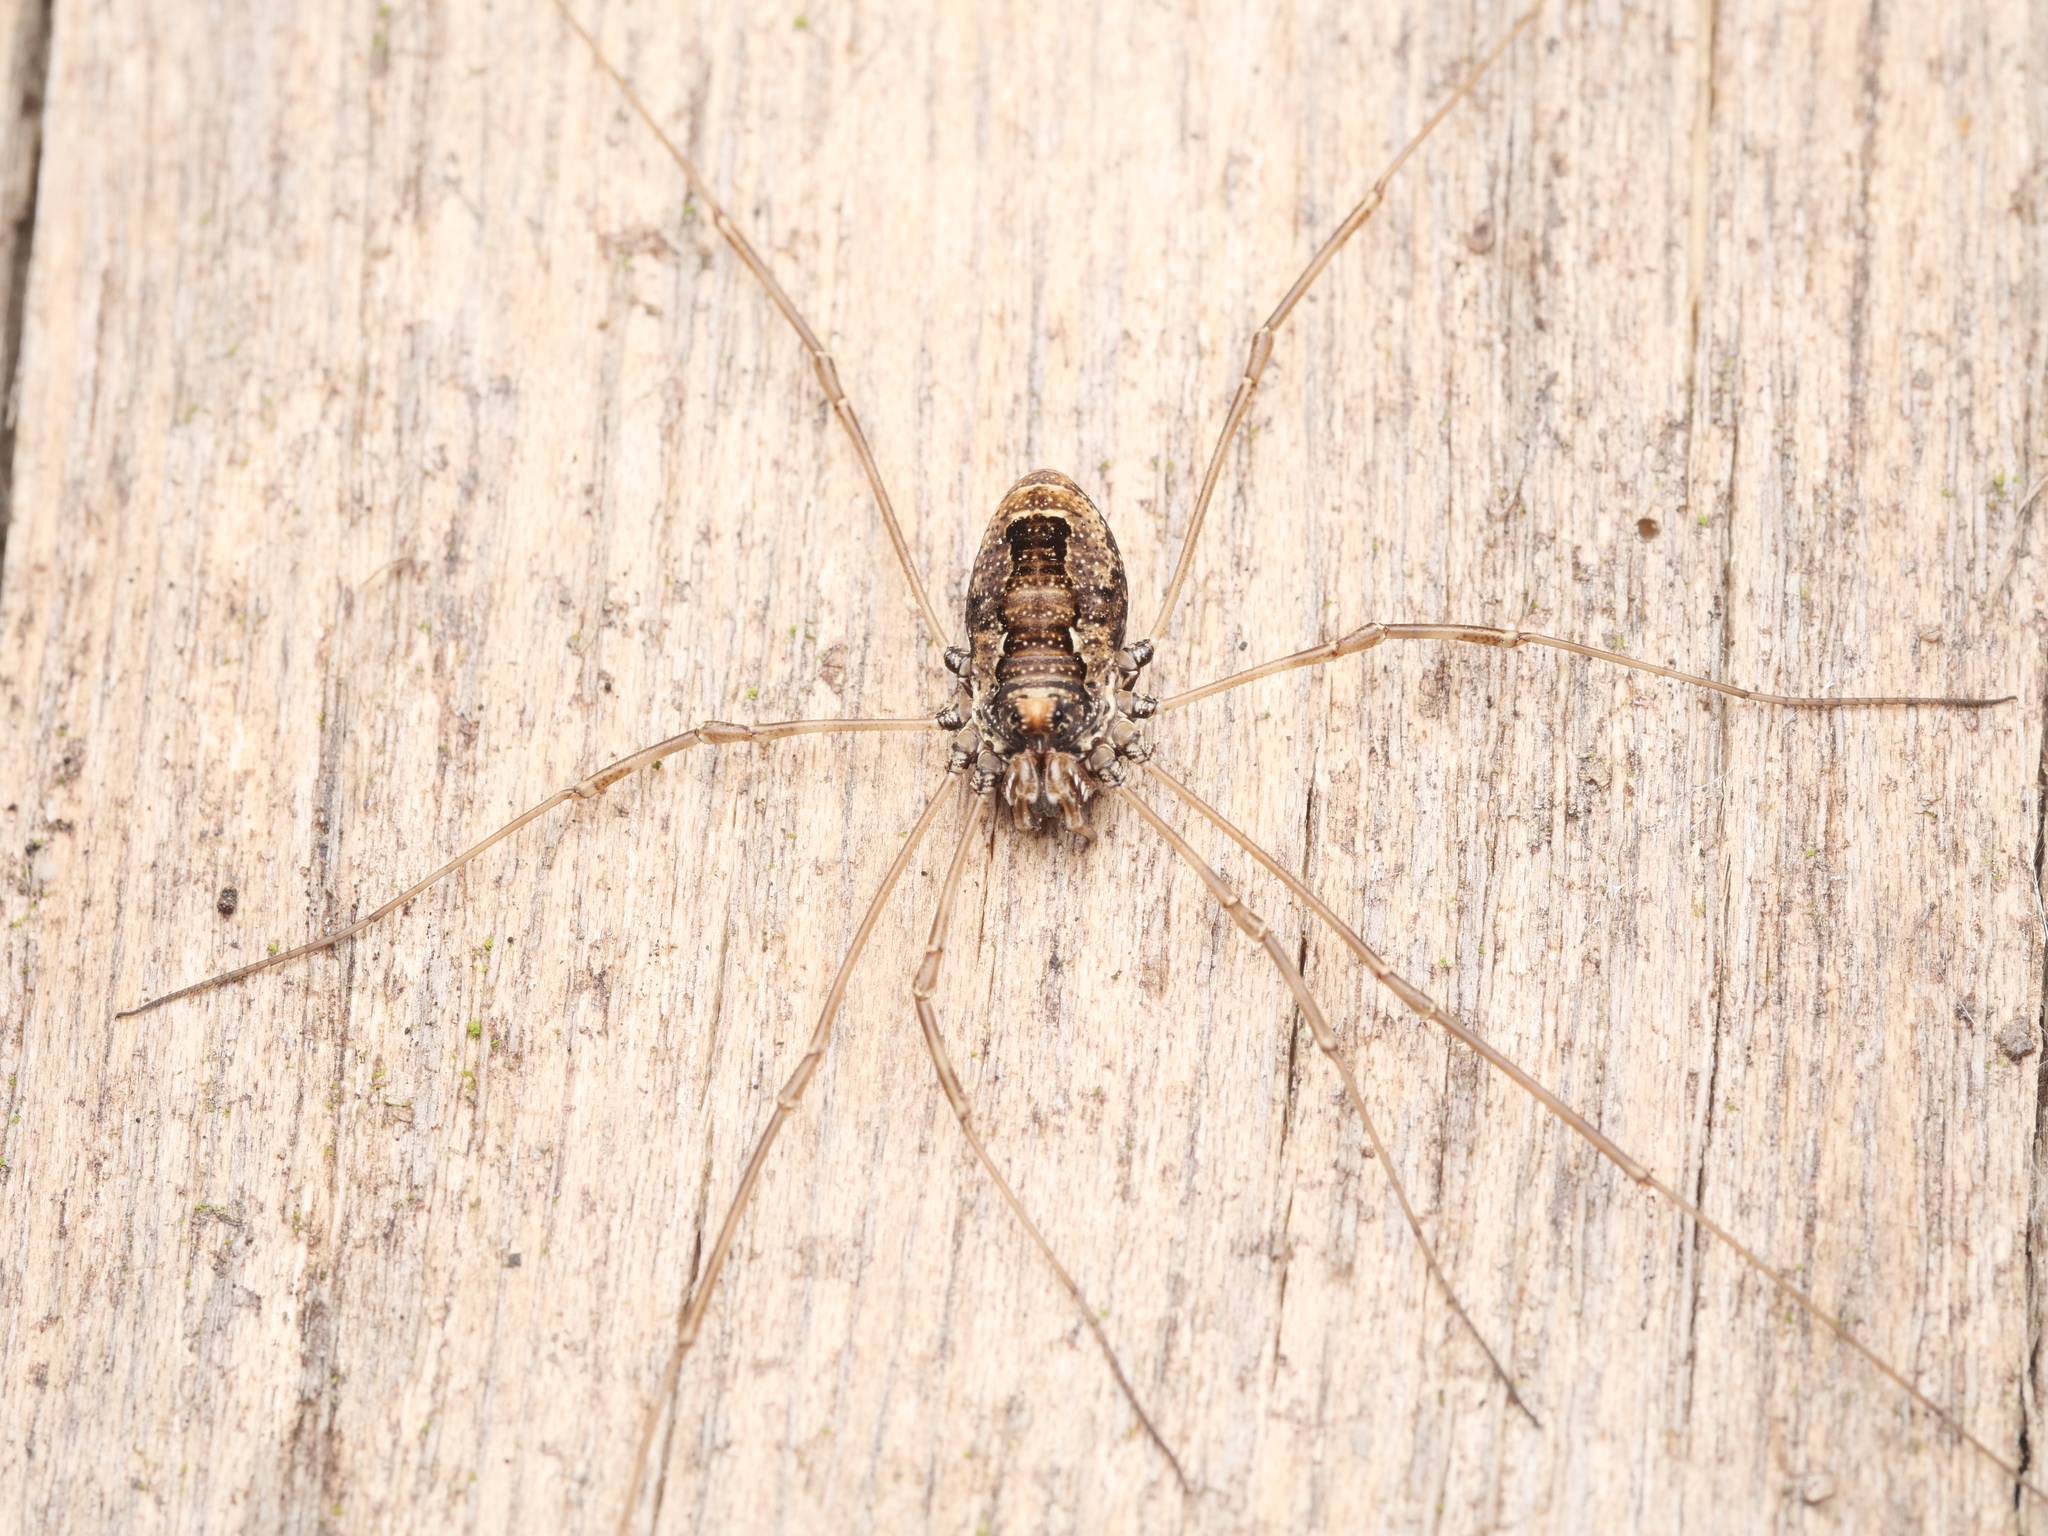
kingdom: Animalia
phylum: Arthropoda
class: Arachnida
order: Opiliones
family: Phalangiidae
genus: Platybunus
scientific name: Platybunus pinetorum
